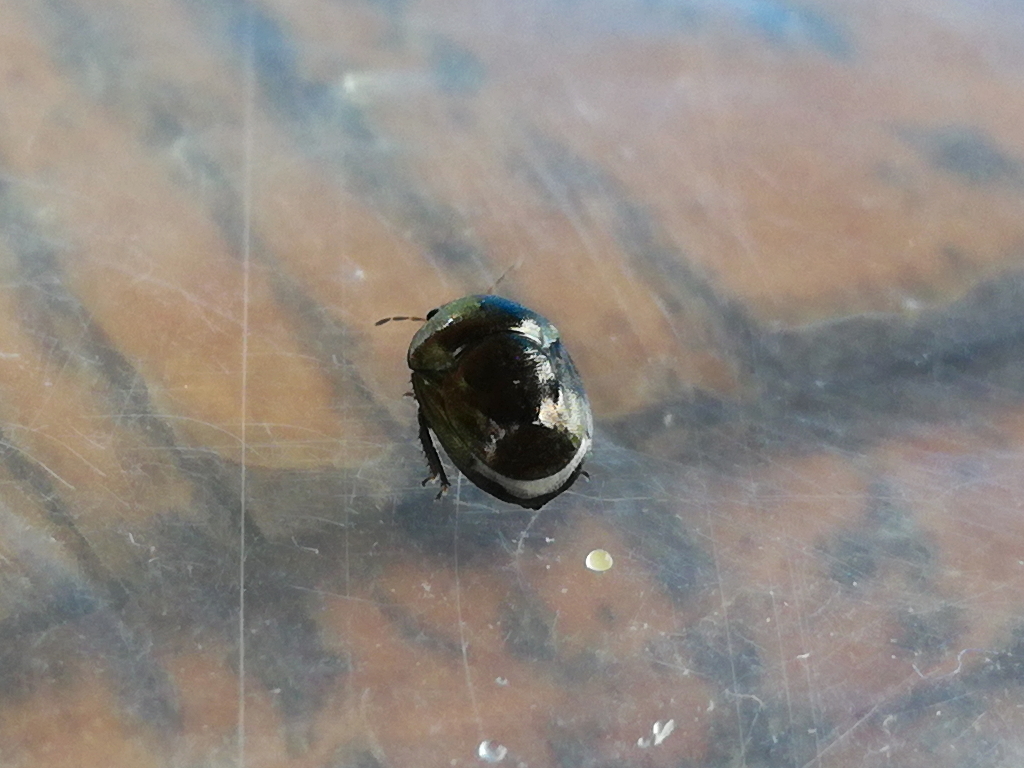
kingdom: Animalia
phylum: Arthropoda
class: Insecta
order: Hemiptera
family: Thyreocoridae
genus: Thyreocoris
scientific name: Thyreocoris scarabaeoides
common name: Negro bug
